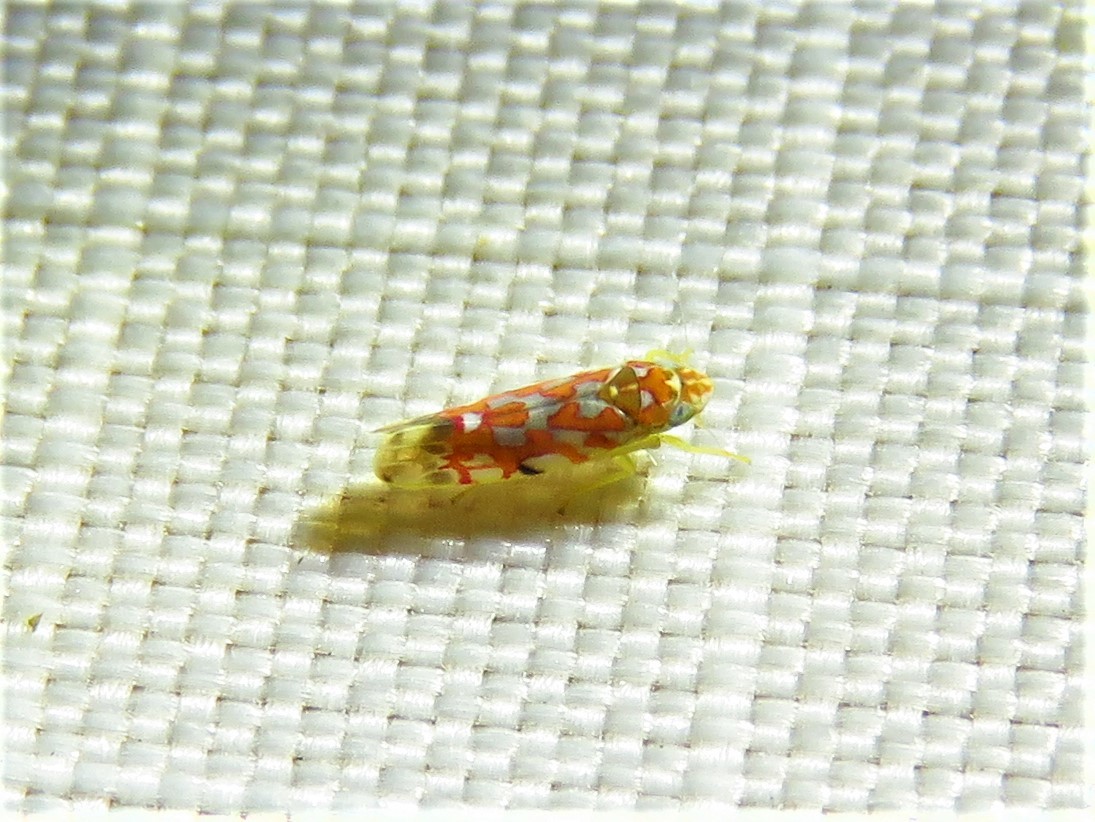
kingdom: Animalia
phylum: Arthropoda
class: Insecta
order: Hemiptera
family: Cicadellidae
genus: Erythroneura
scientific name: Erythroneura rubra
